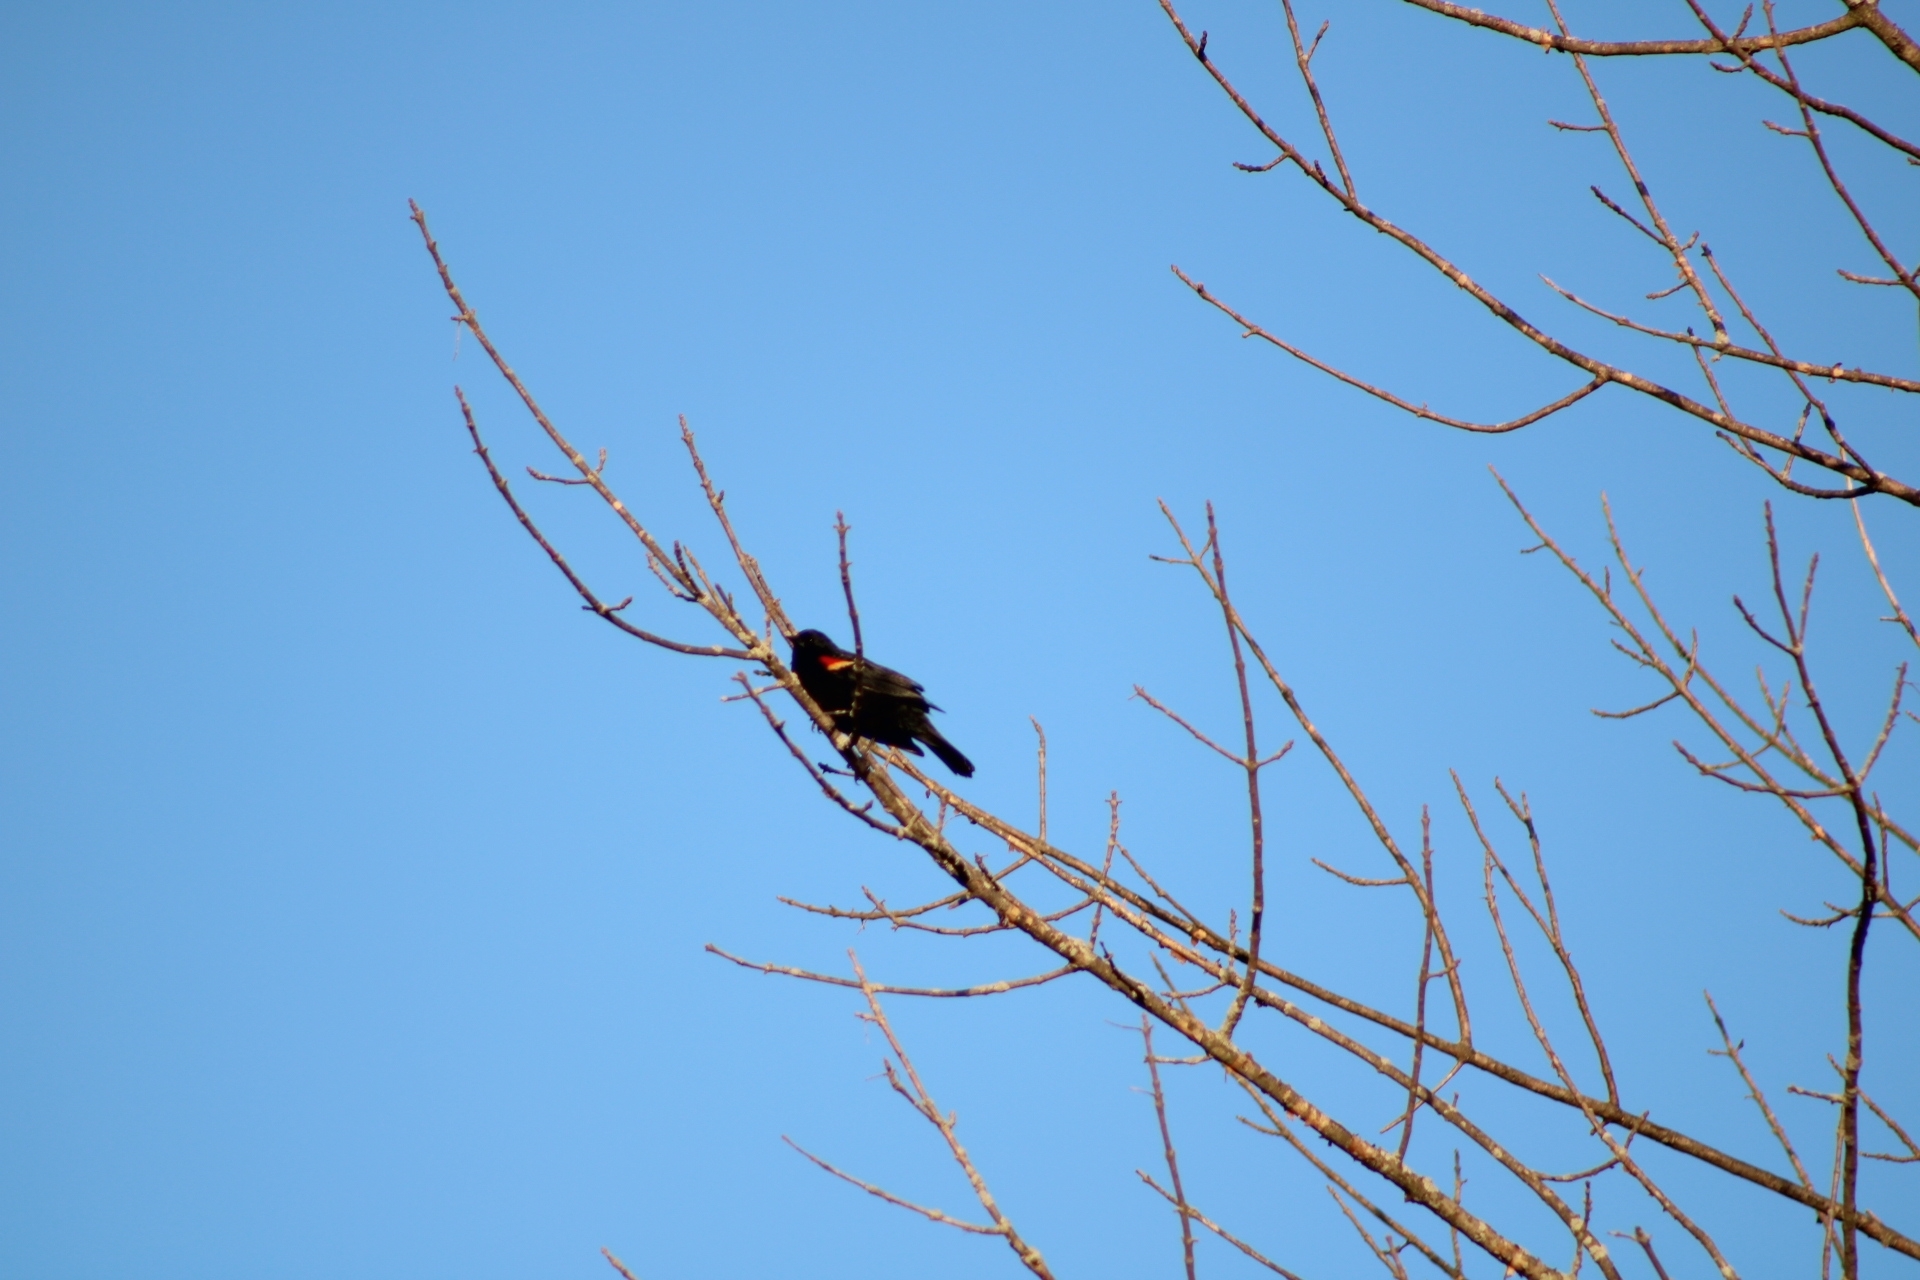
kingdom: Animalia
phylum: Chordata
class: Aves
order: Passeriformes
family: Icteridae
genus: Agelaius
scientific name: Agelaius phoeniceus
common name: Red-winged blackbird
